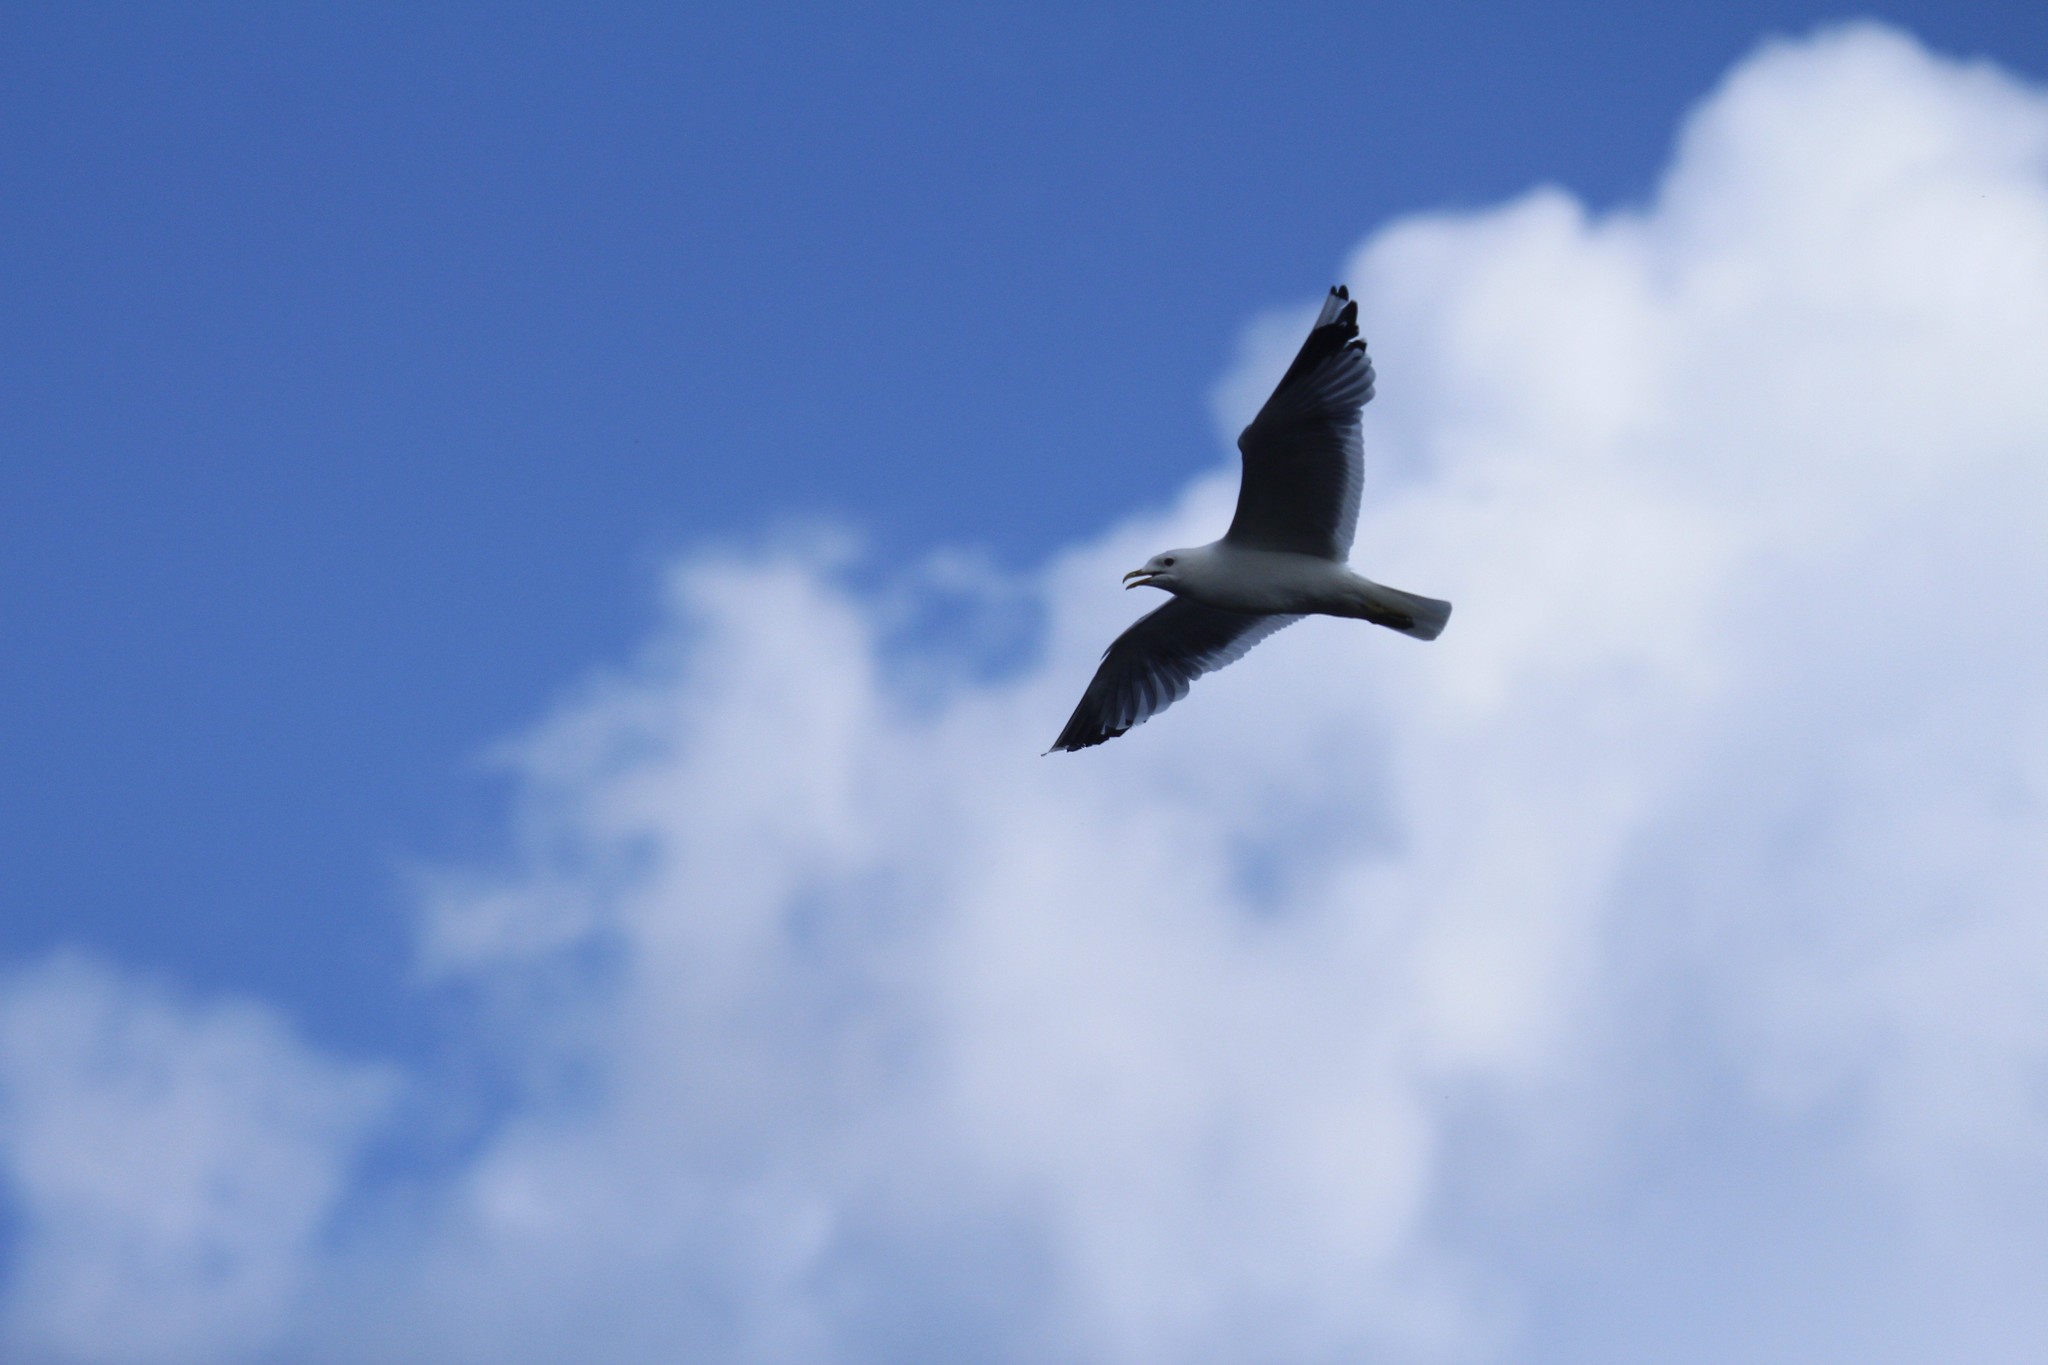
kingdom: Animalia
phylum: Chordata
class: Aves
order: Charadriiformes
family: Laridae
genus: Larus
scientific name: Larus canus
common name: Mew gull
